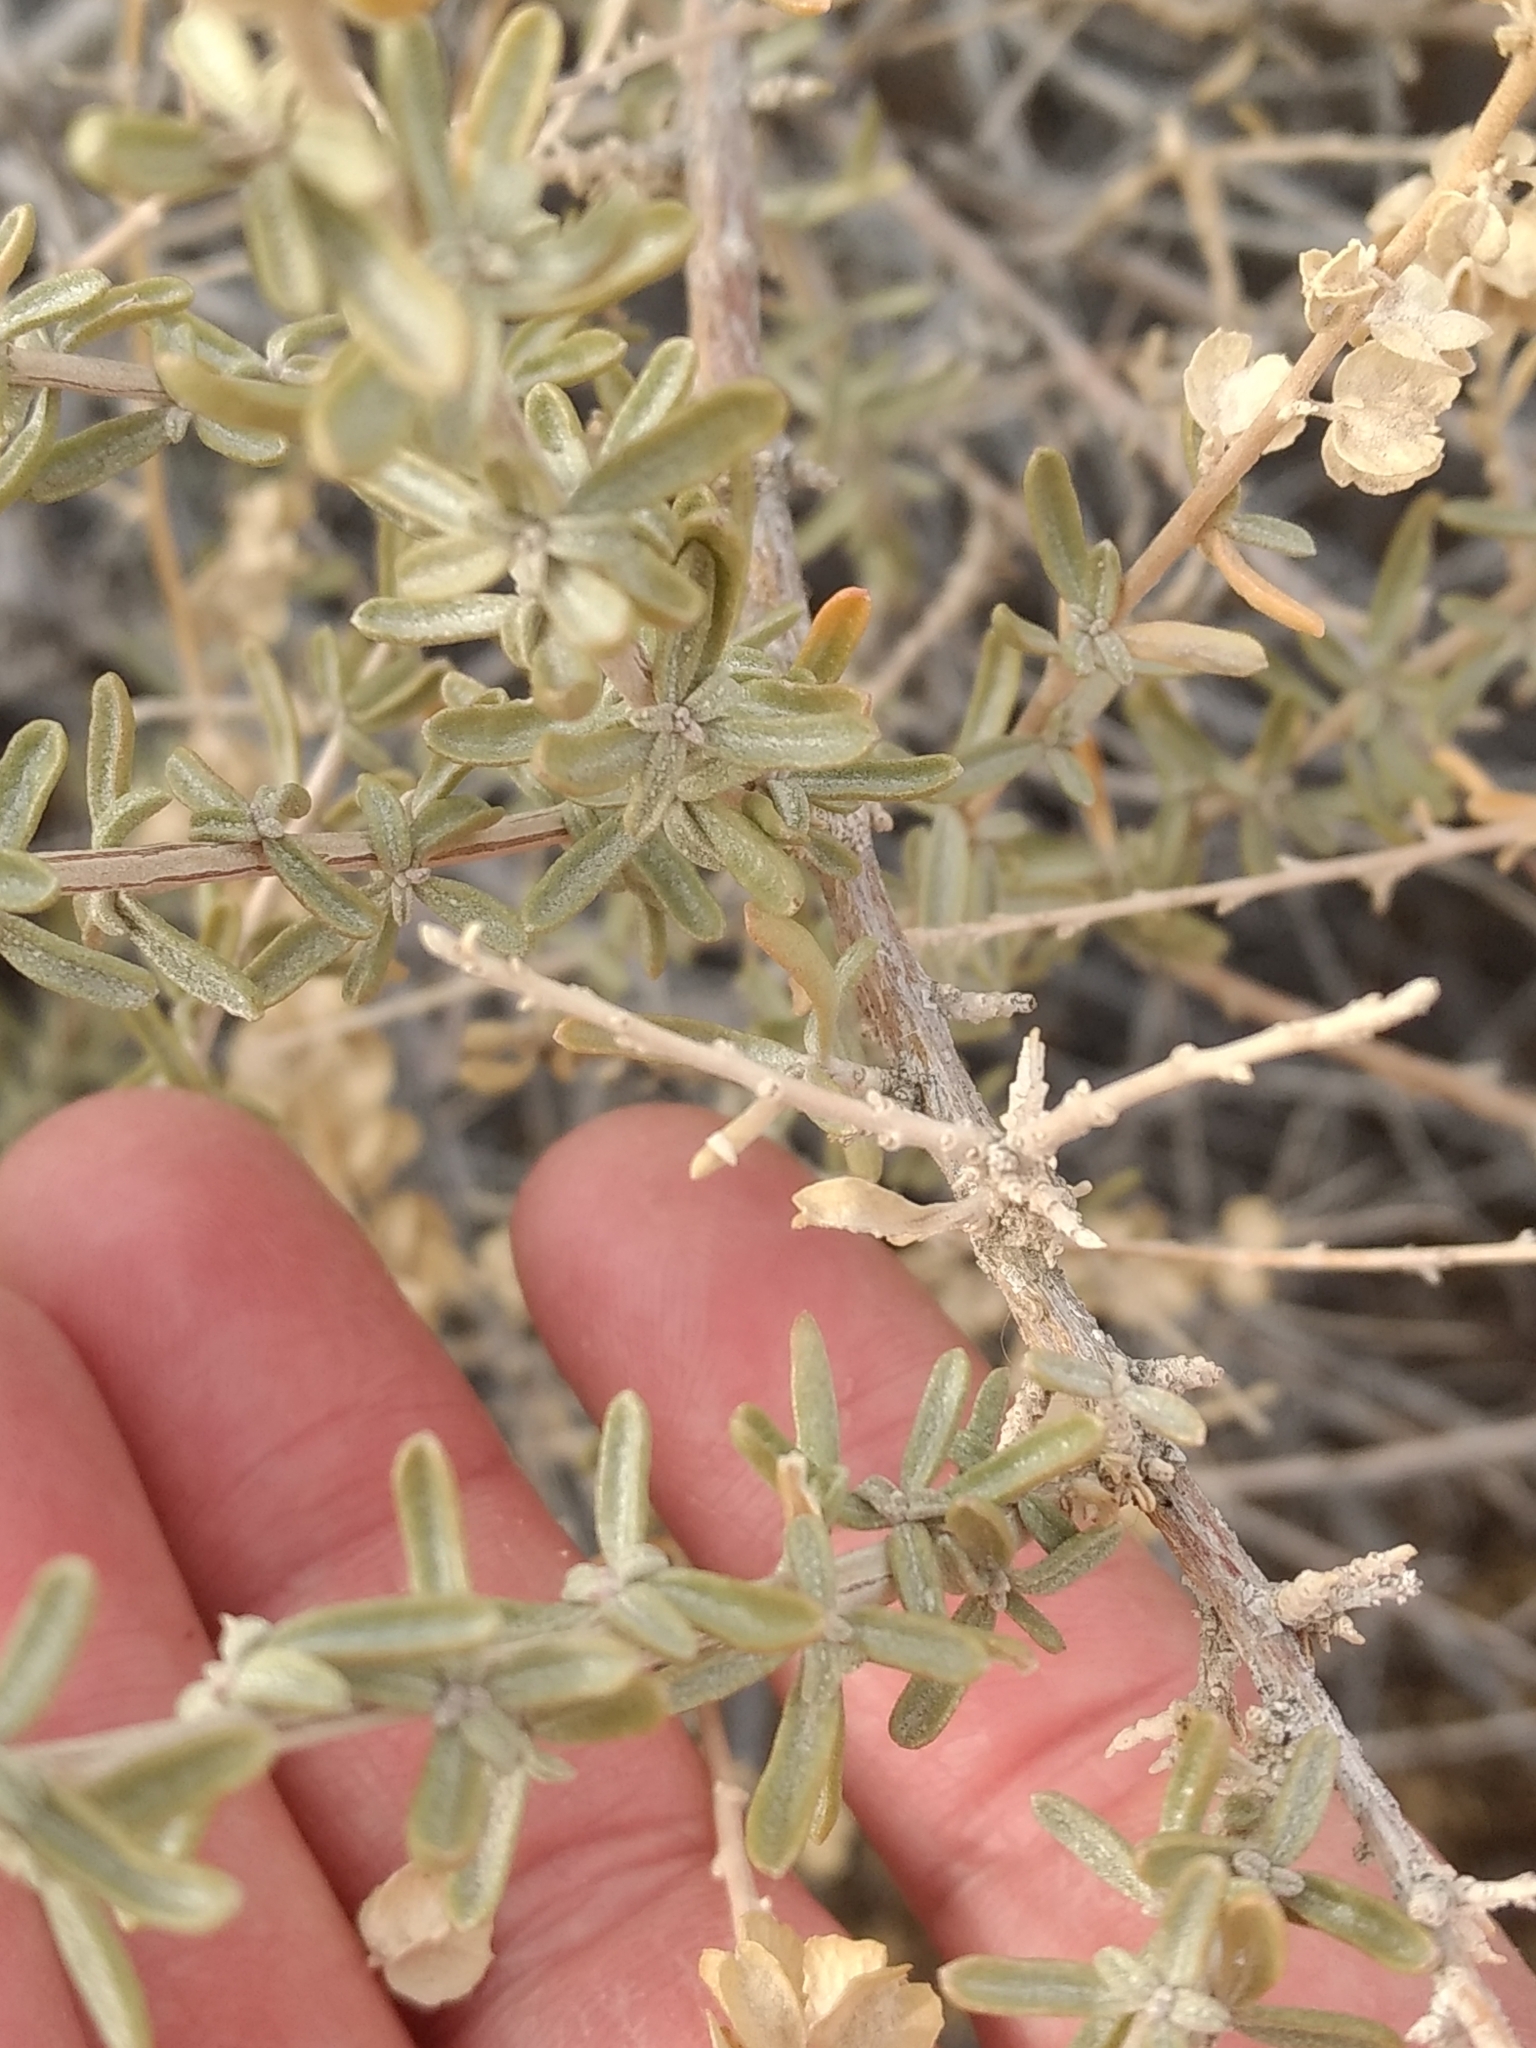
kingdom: Plantae
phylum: Tracheophyta
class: Magnoliopsida
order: Caryophyllales
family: Amaranthaceae
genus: Atriplex
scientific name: Atriplex canescens
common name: Four-wing saltbush
